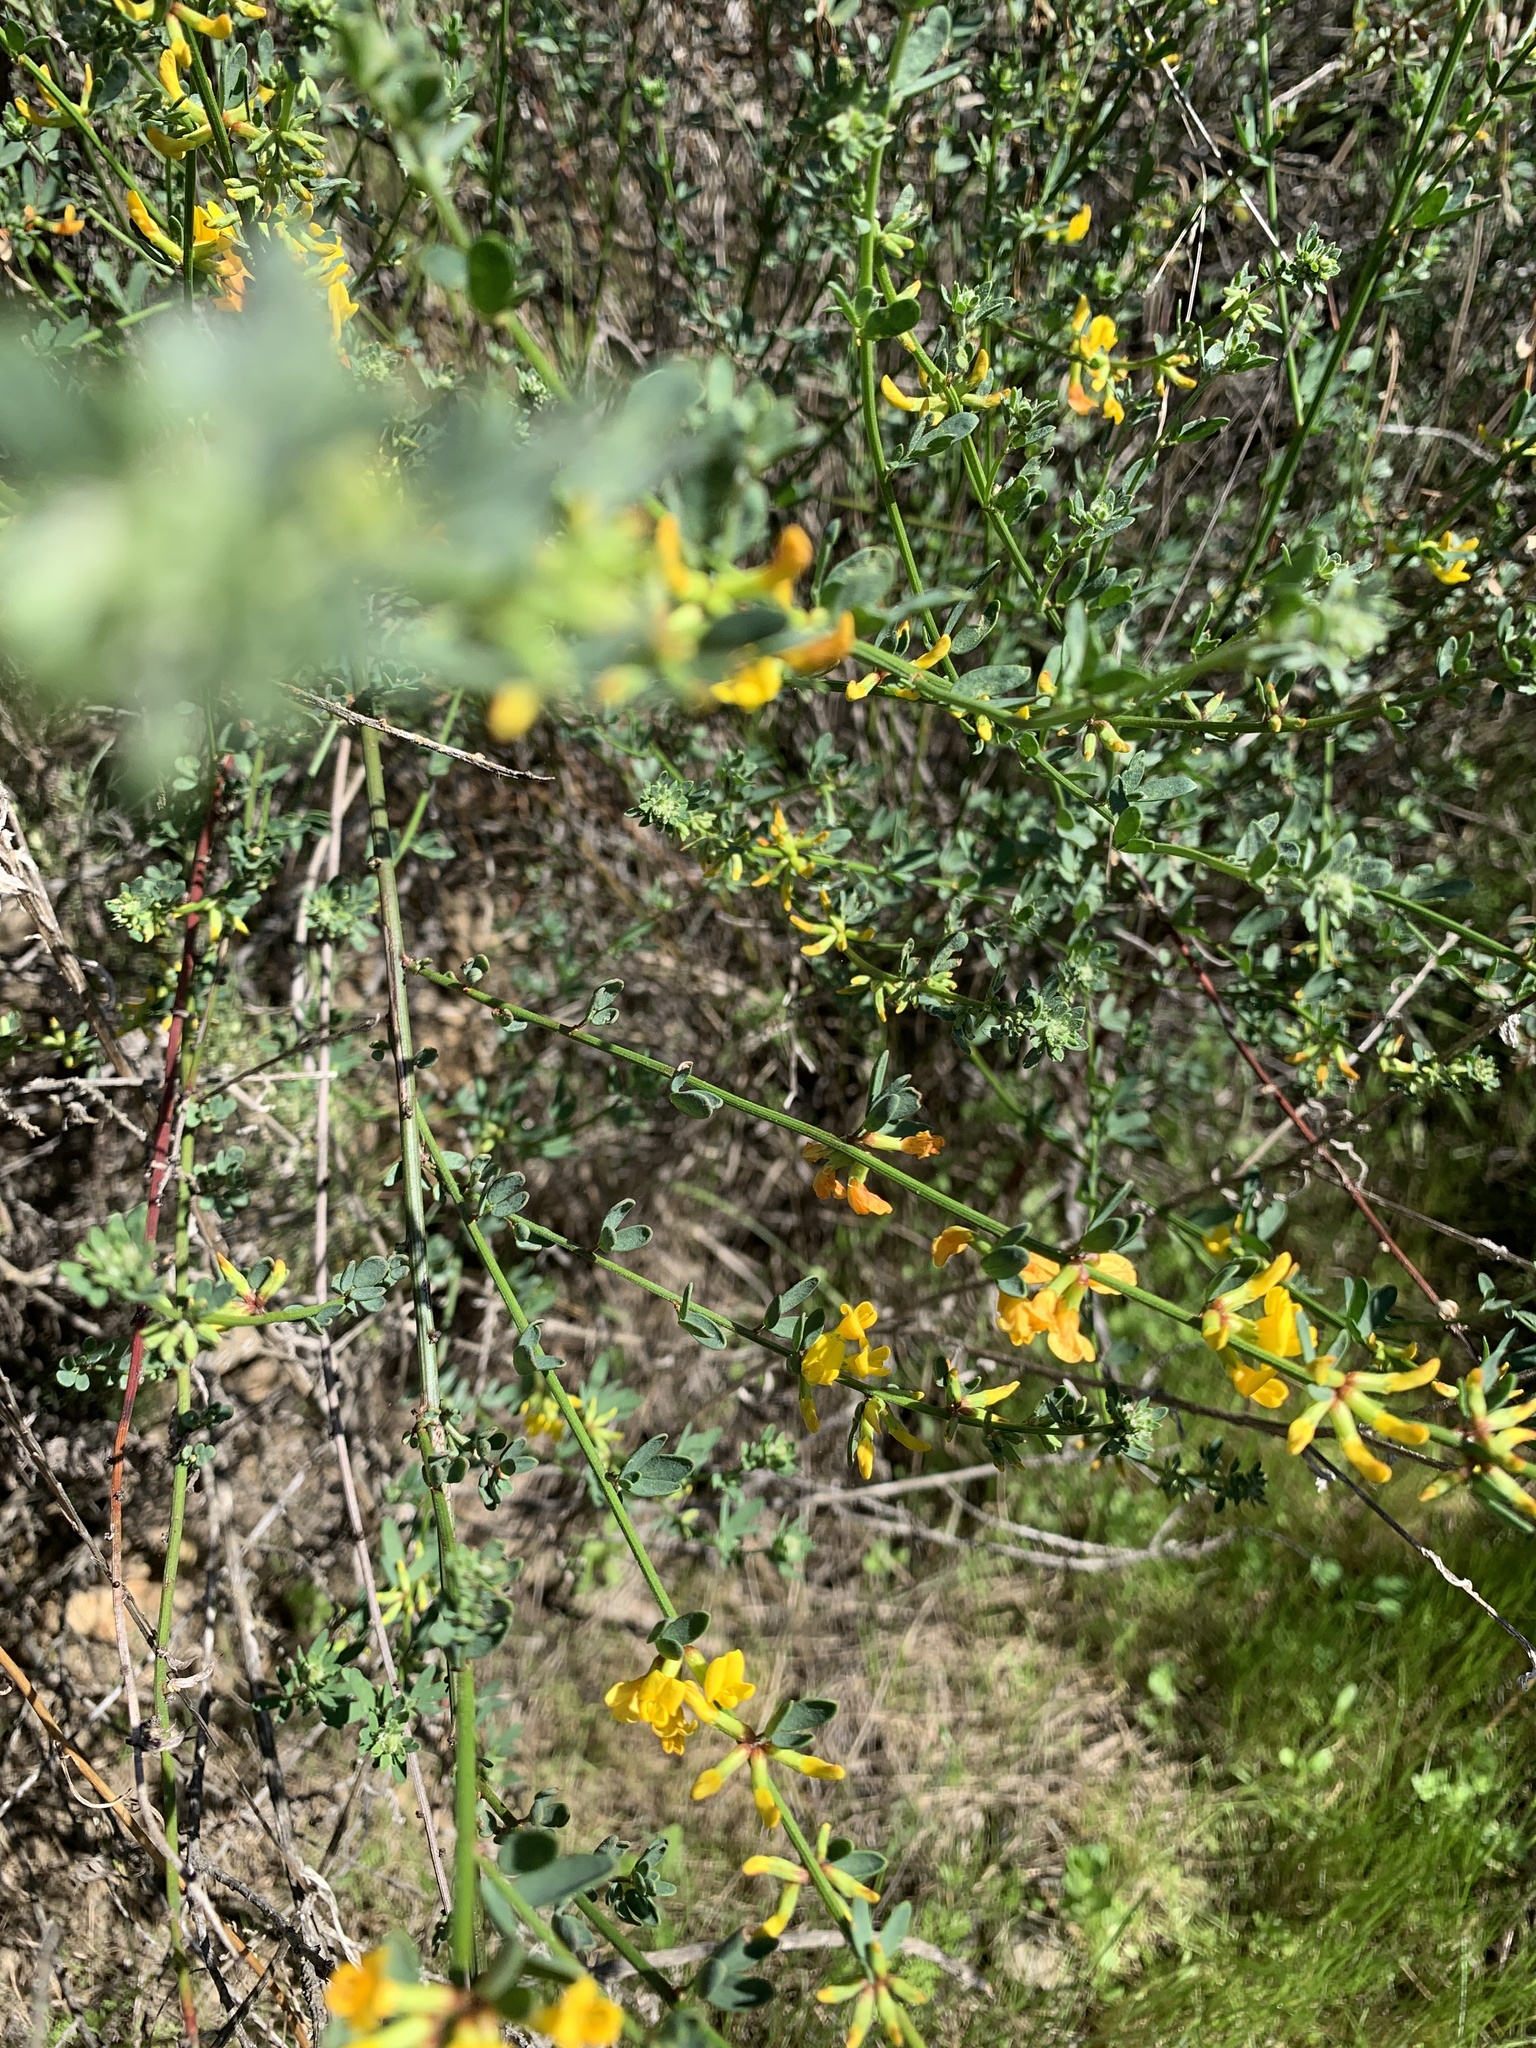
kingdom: Plantae
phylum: Tracheophyta
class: Magnoliopsida
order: Fabales
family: Fabaceae
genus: Acmispon
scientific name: Acmispon glaber
